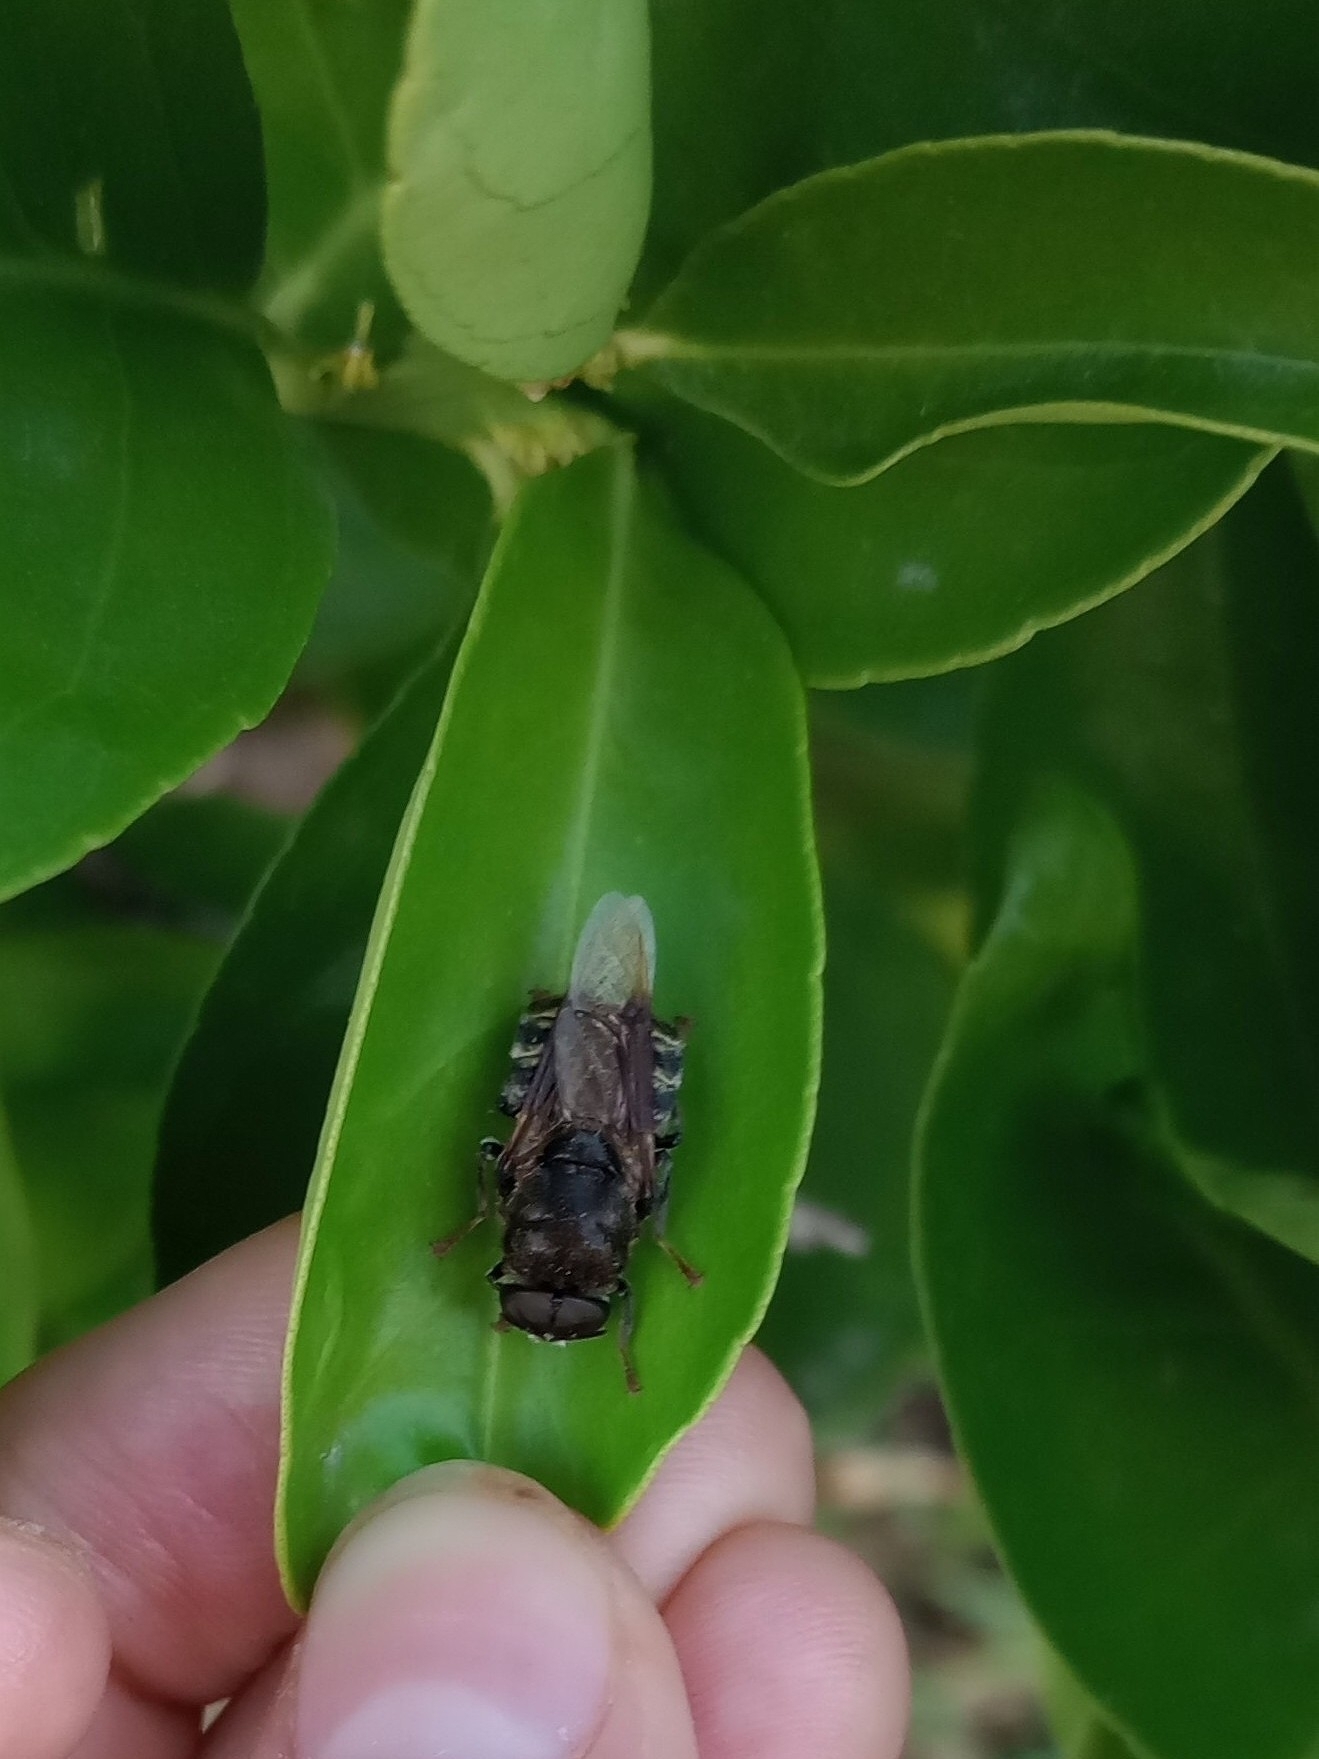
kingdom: Animalia
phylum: Arthropoda
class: Insecta
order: Diptera
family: Stratiomyidae
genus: Stratiomys
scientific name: Stratiomys constricta
